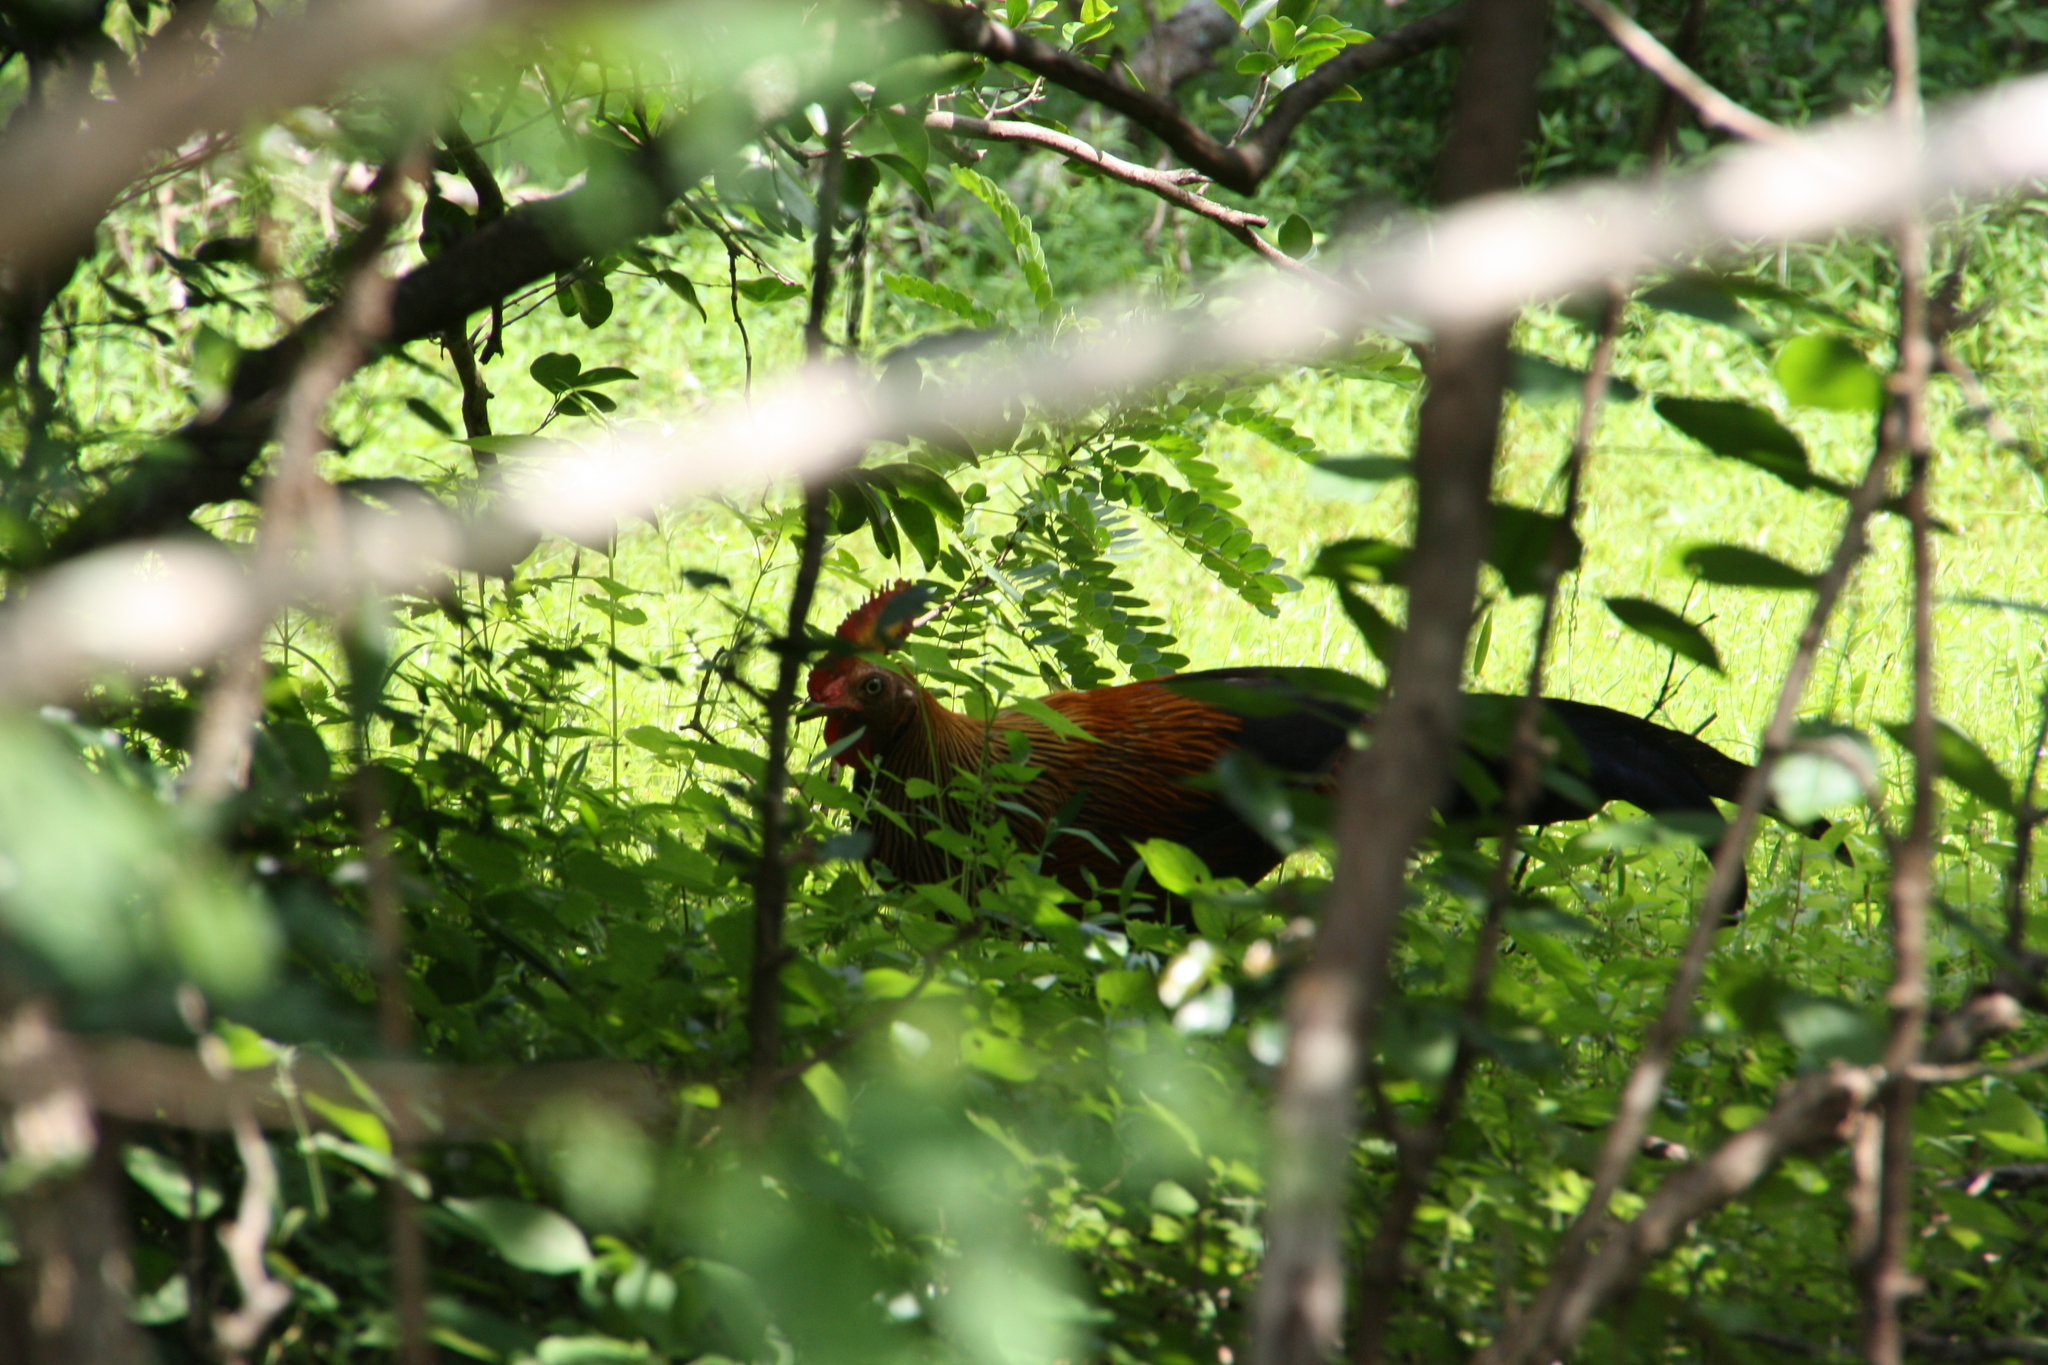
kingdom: Animalia
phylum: Chordata
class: Aves
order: Galliformes
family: Phasianidae
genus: Gallus
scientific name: Gallus lafayettii
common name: Sri lanka junglefowl
